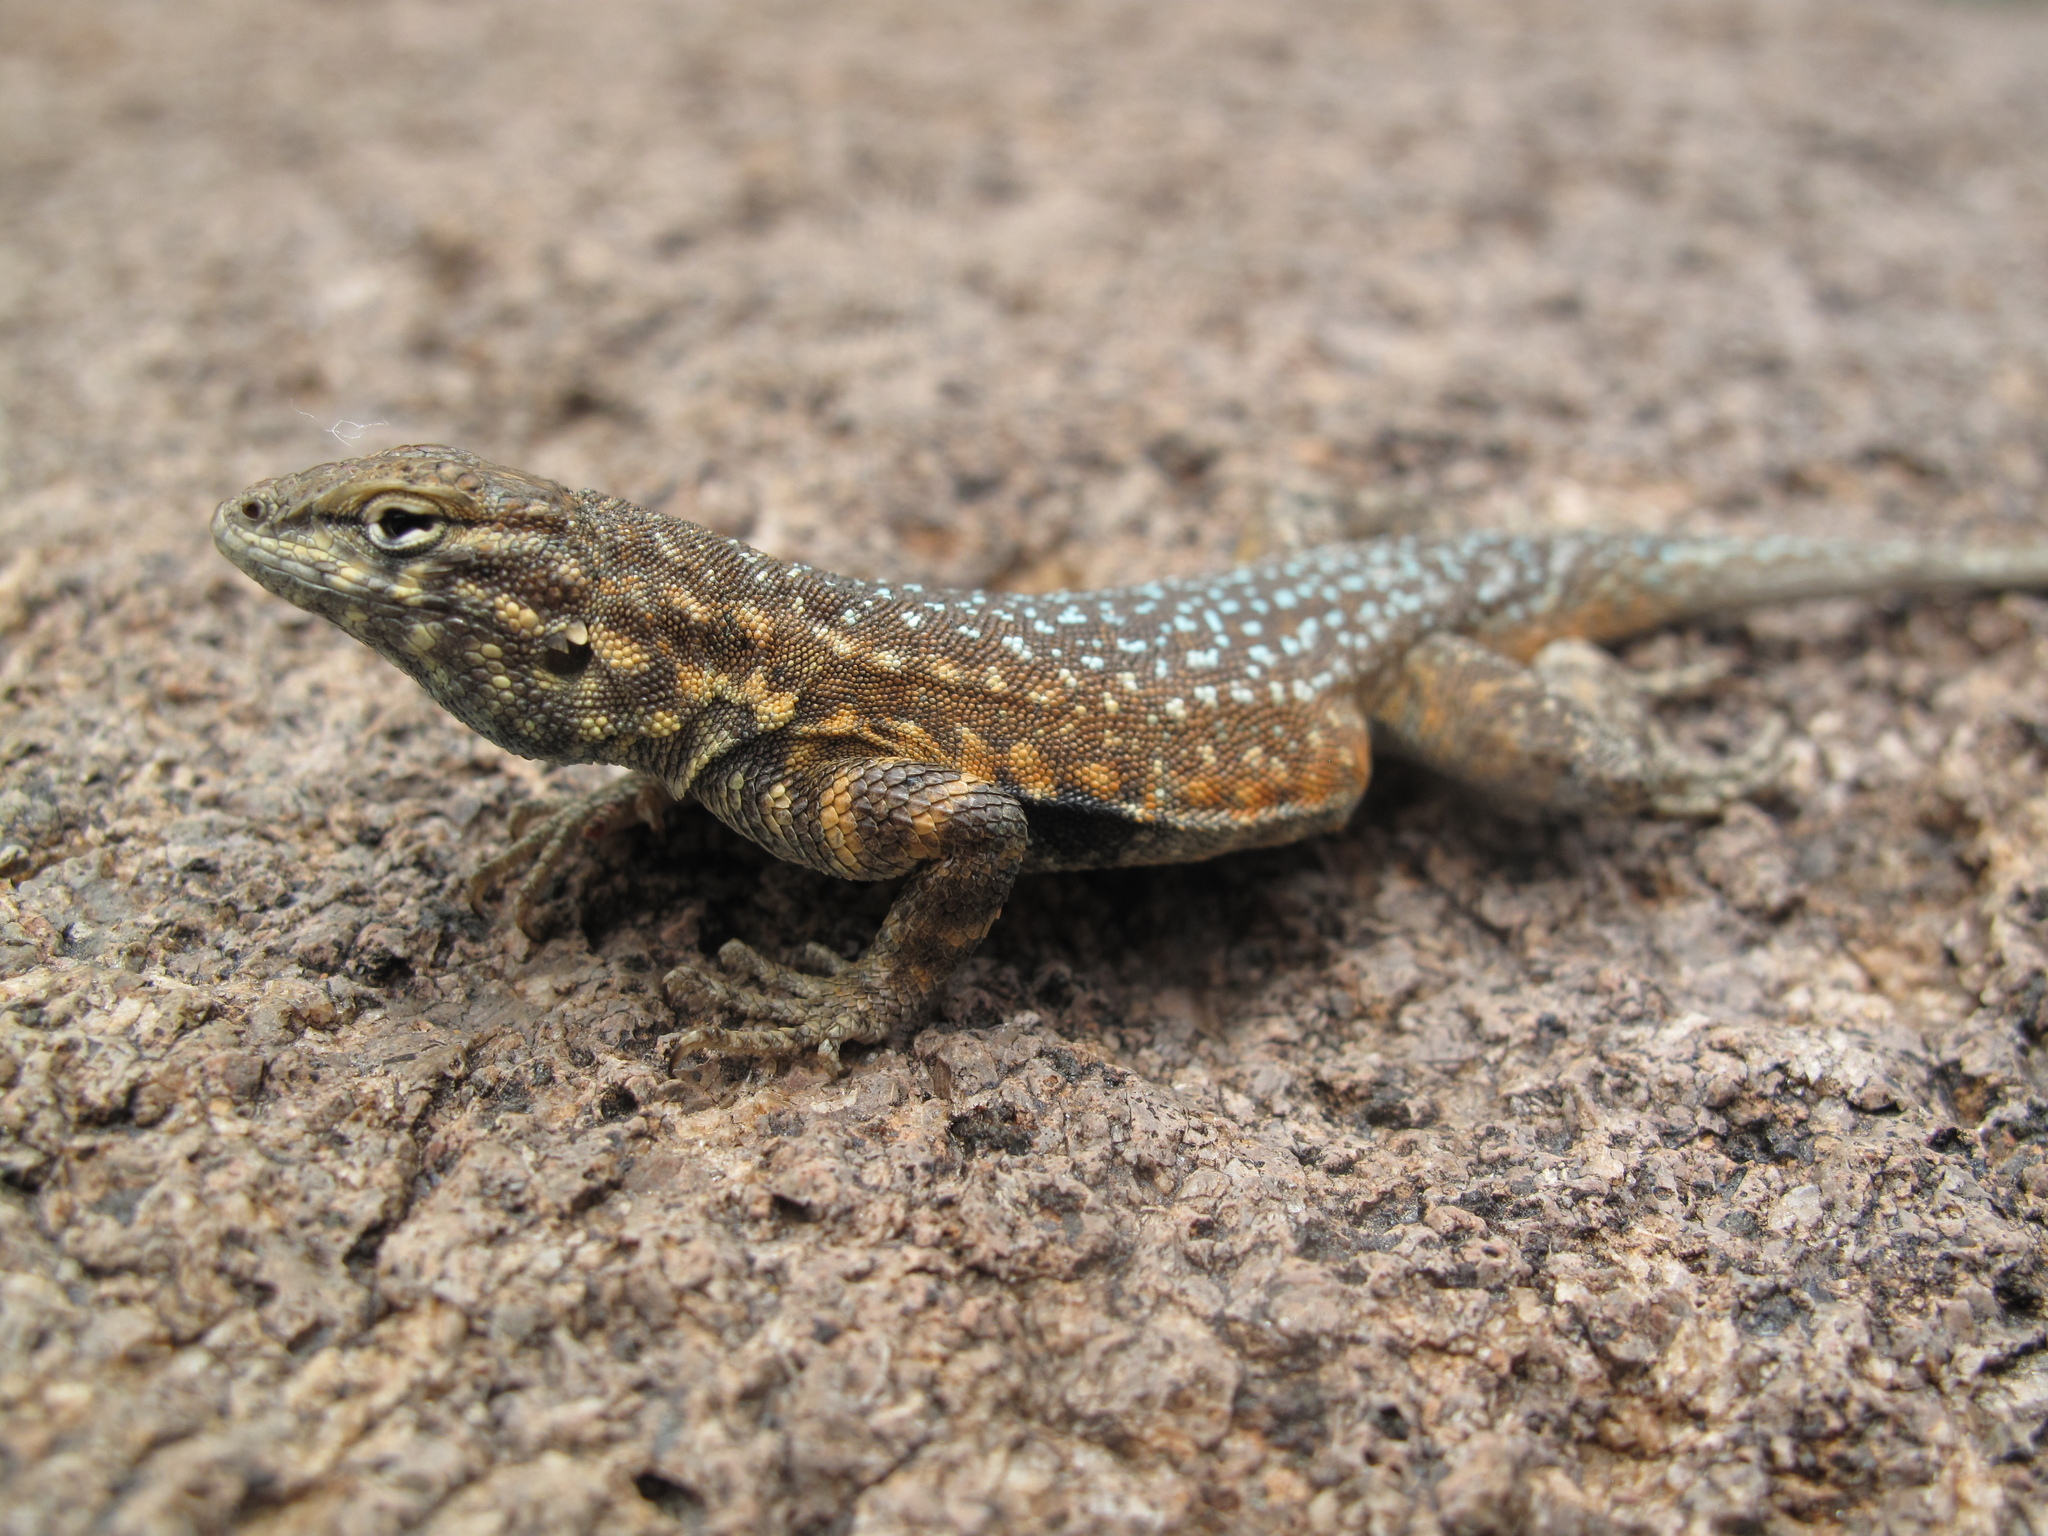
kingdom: Animalia
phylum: Chordata
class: Squamata
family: Phrynosomatidae
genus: Uta
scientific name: Uta stansburiana
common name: Side-blotched lizard
